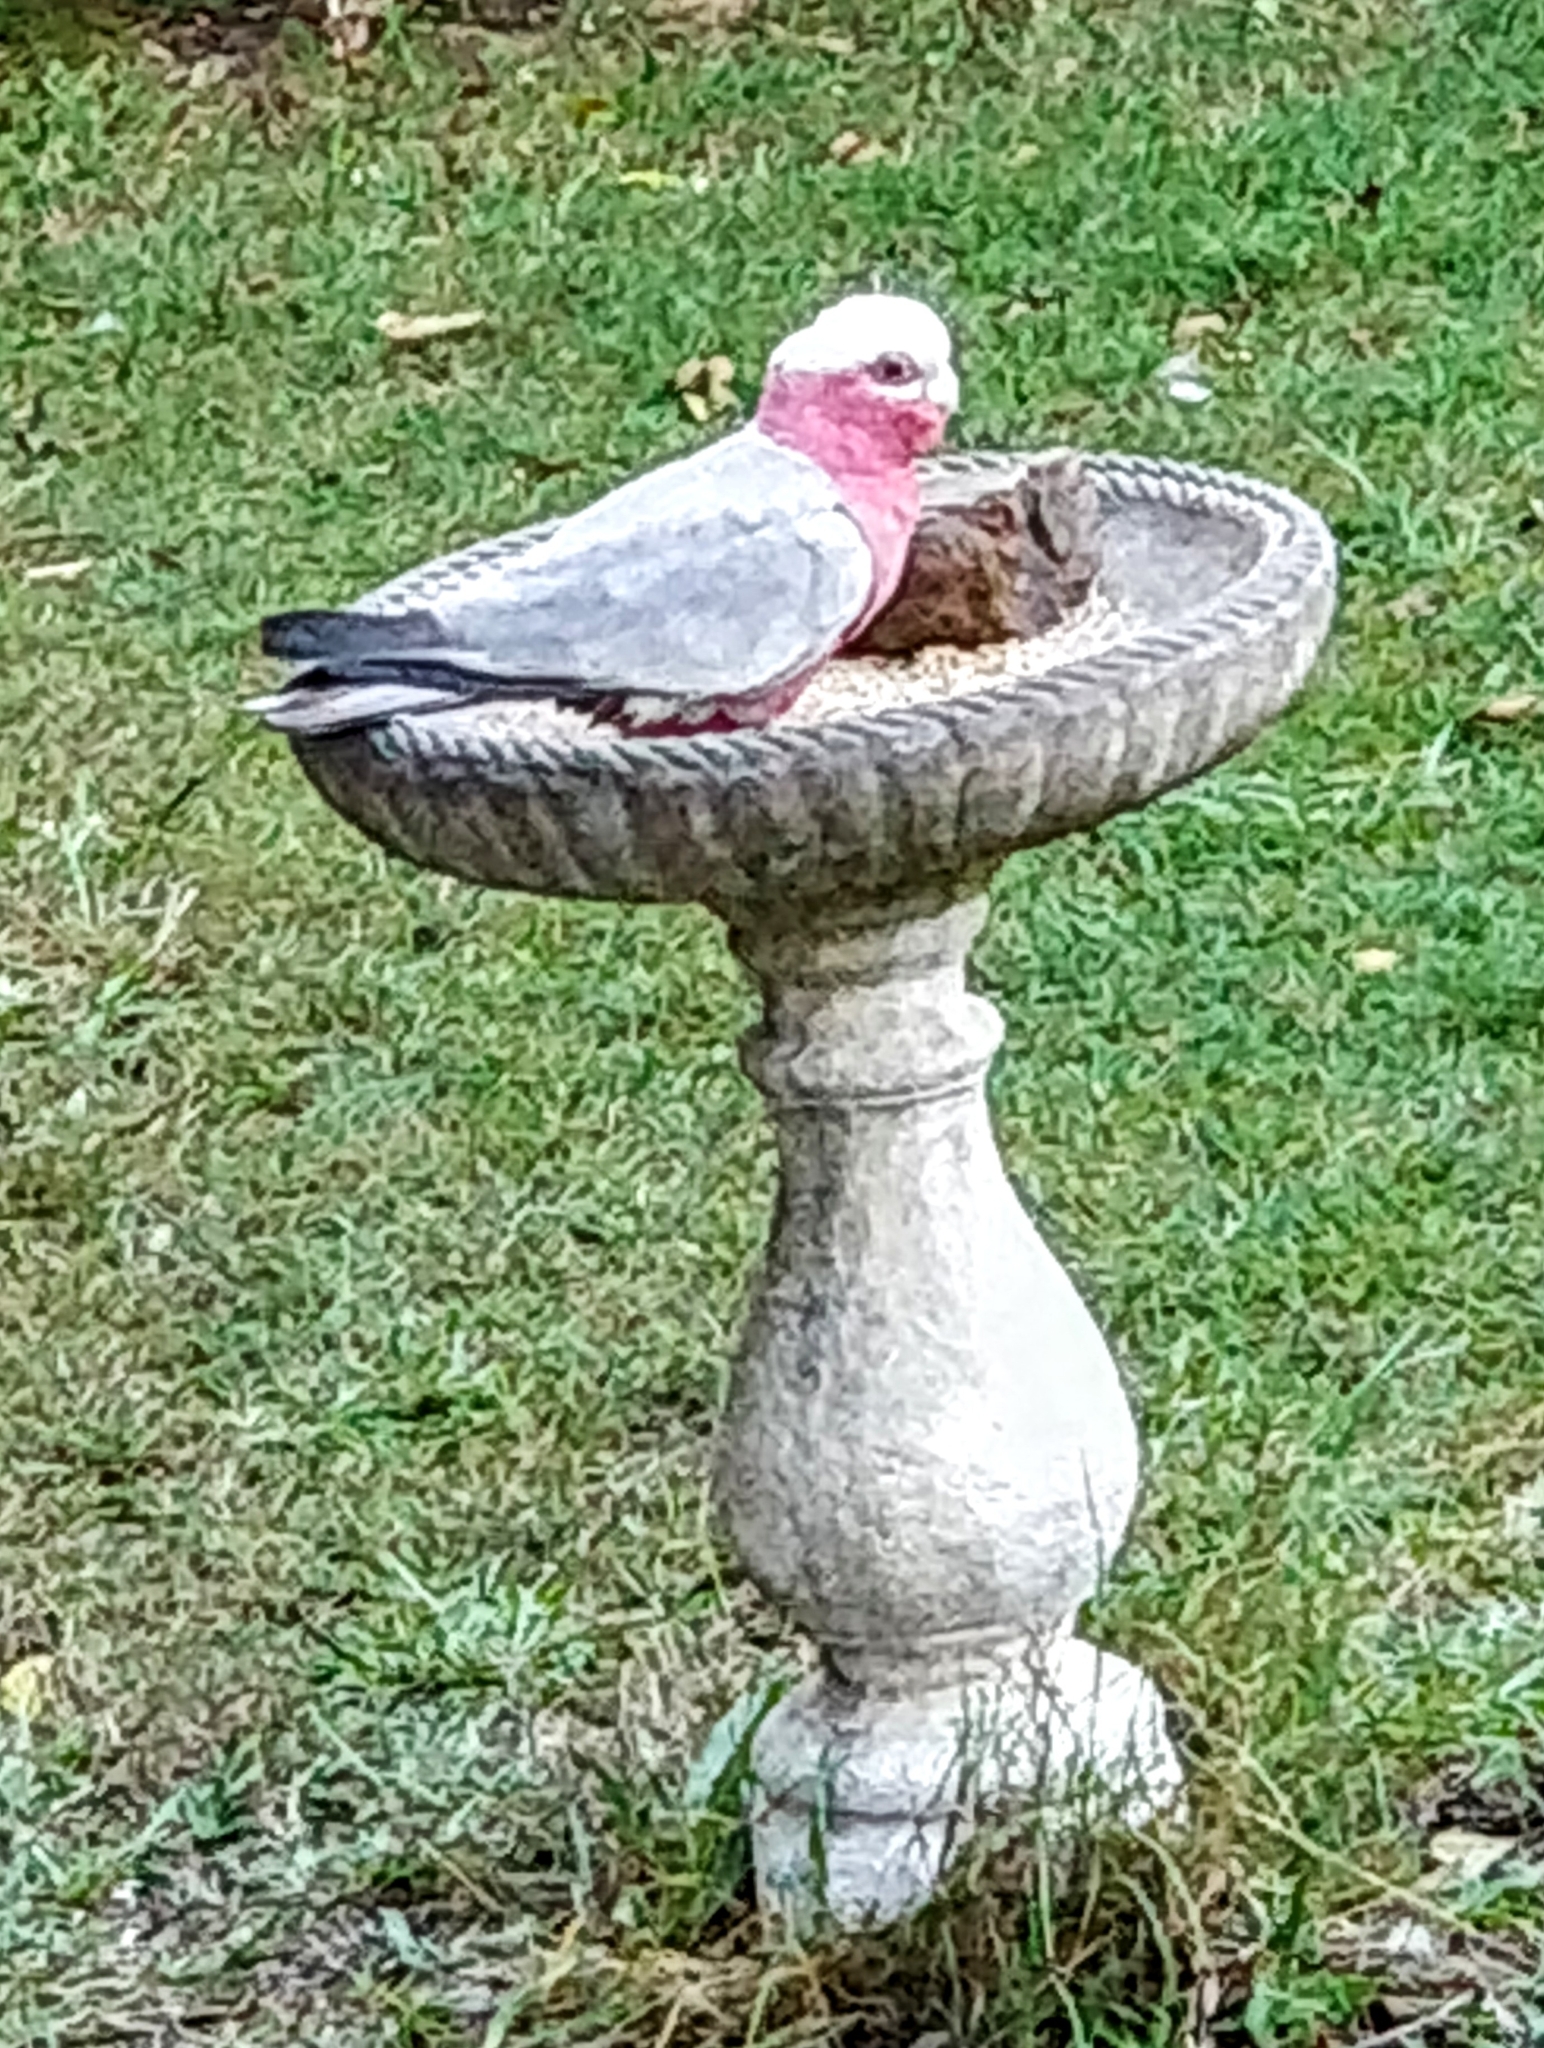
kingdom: Animalia
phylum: Chordata
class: Aves
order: Psittaciformes
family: Psittacidae
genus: Eolophus
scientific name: Eolophus roseicapilla
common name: Galah
